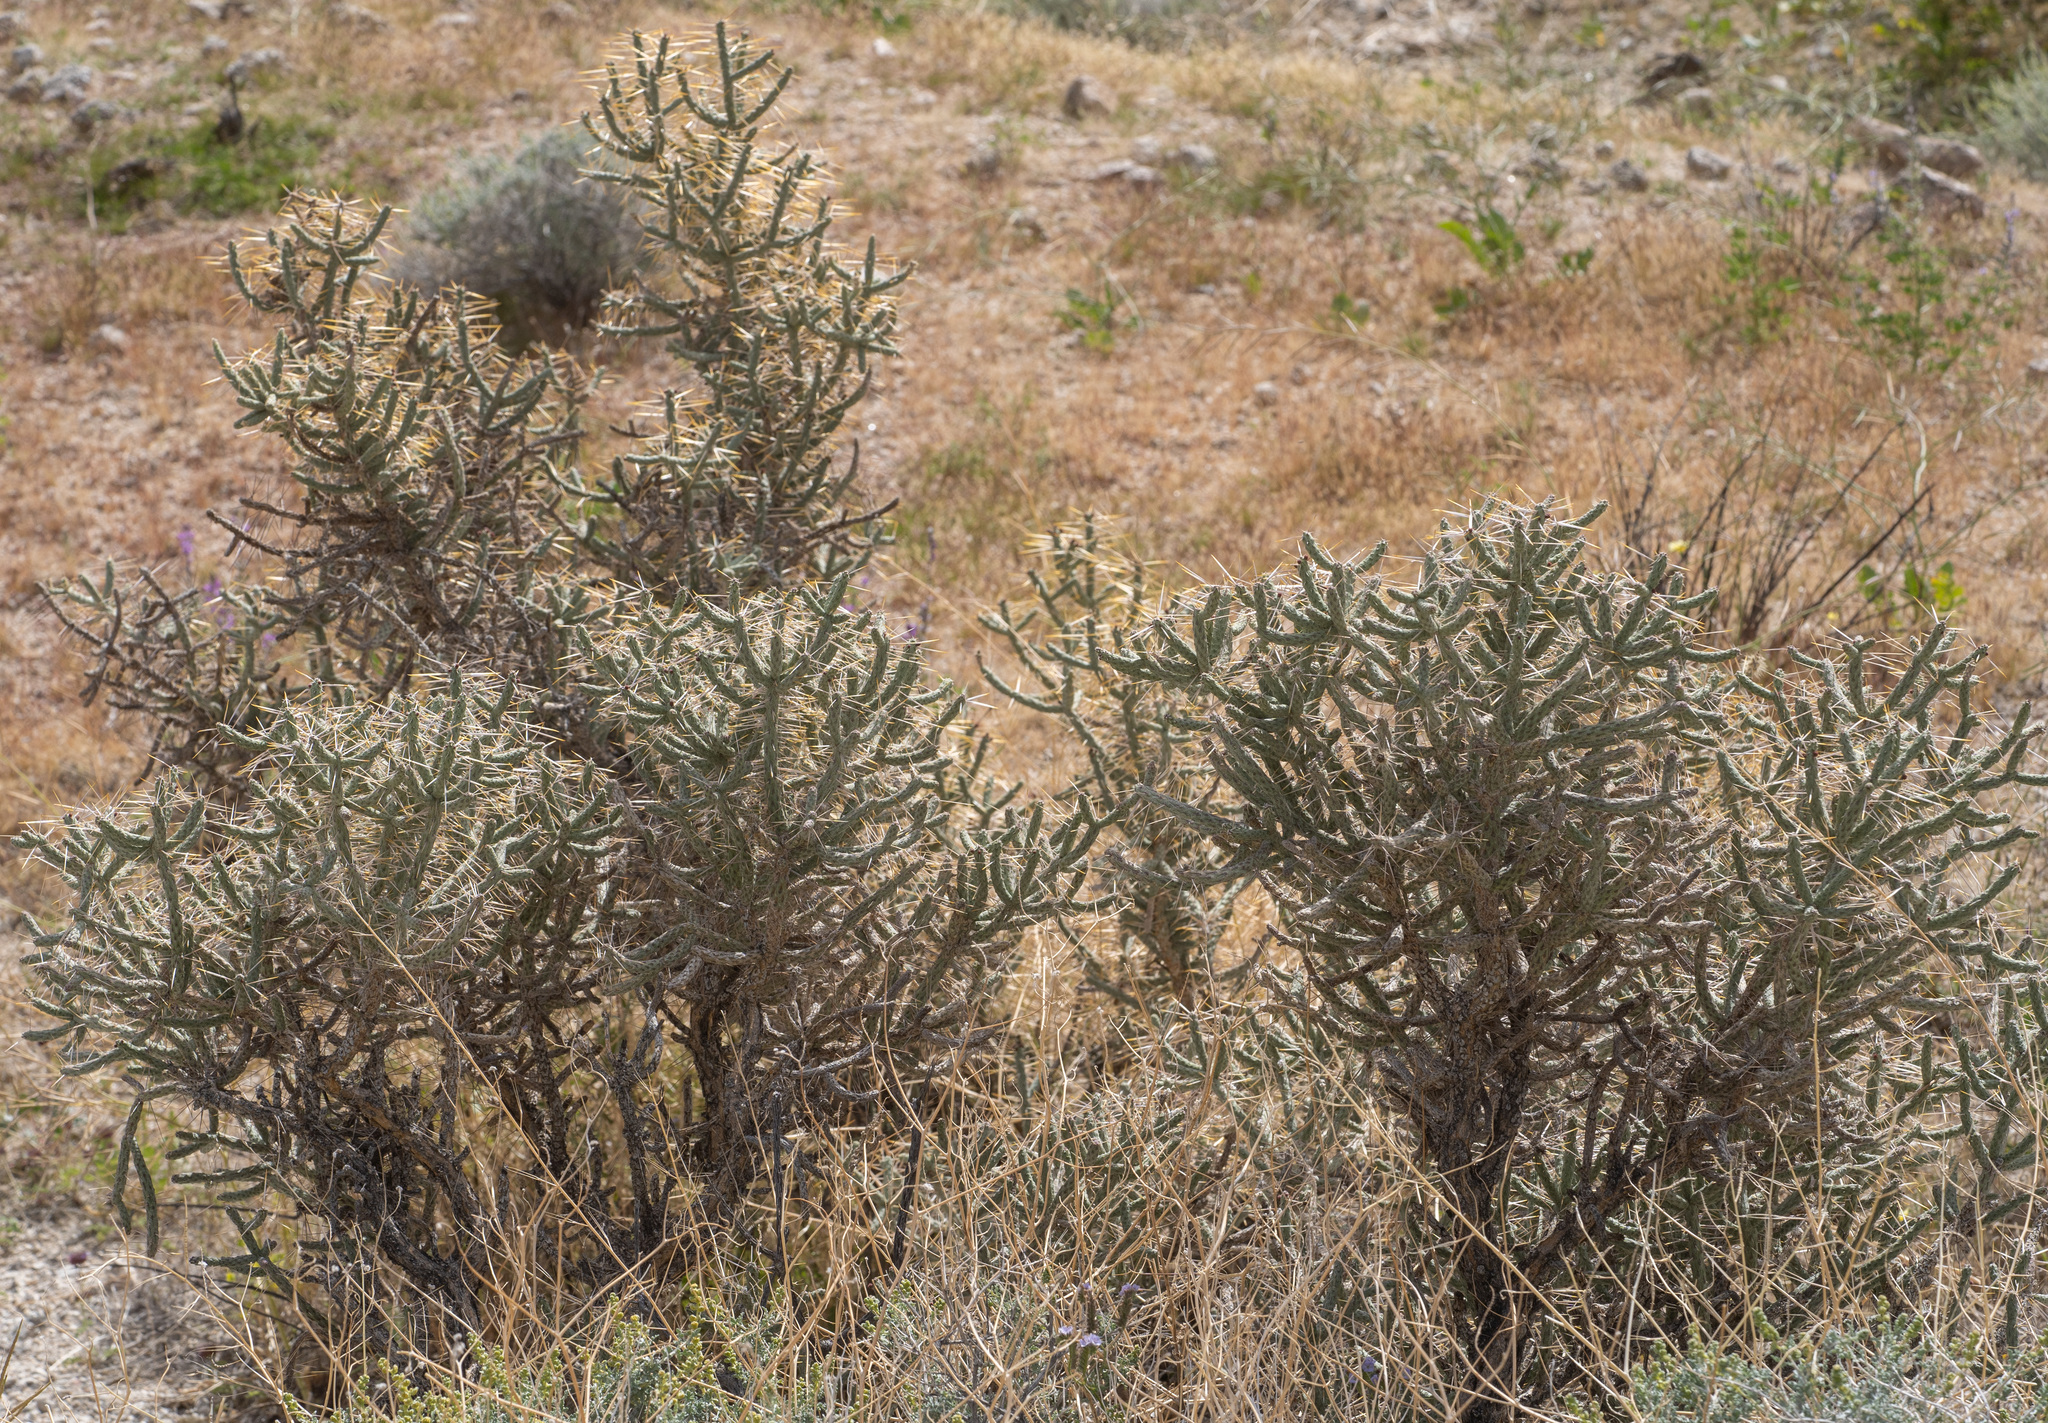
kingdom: Plantae
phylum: Tracheophyta
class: Magnoliopsida
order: Caryophyllales
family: Cactaceae
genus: Cylindropuntia
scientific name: Cylindropuntia ramosissima
